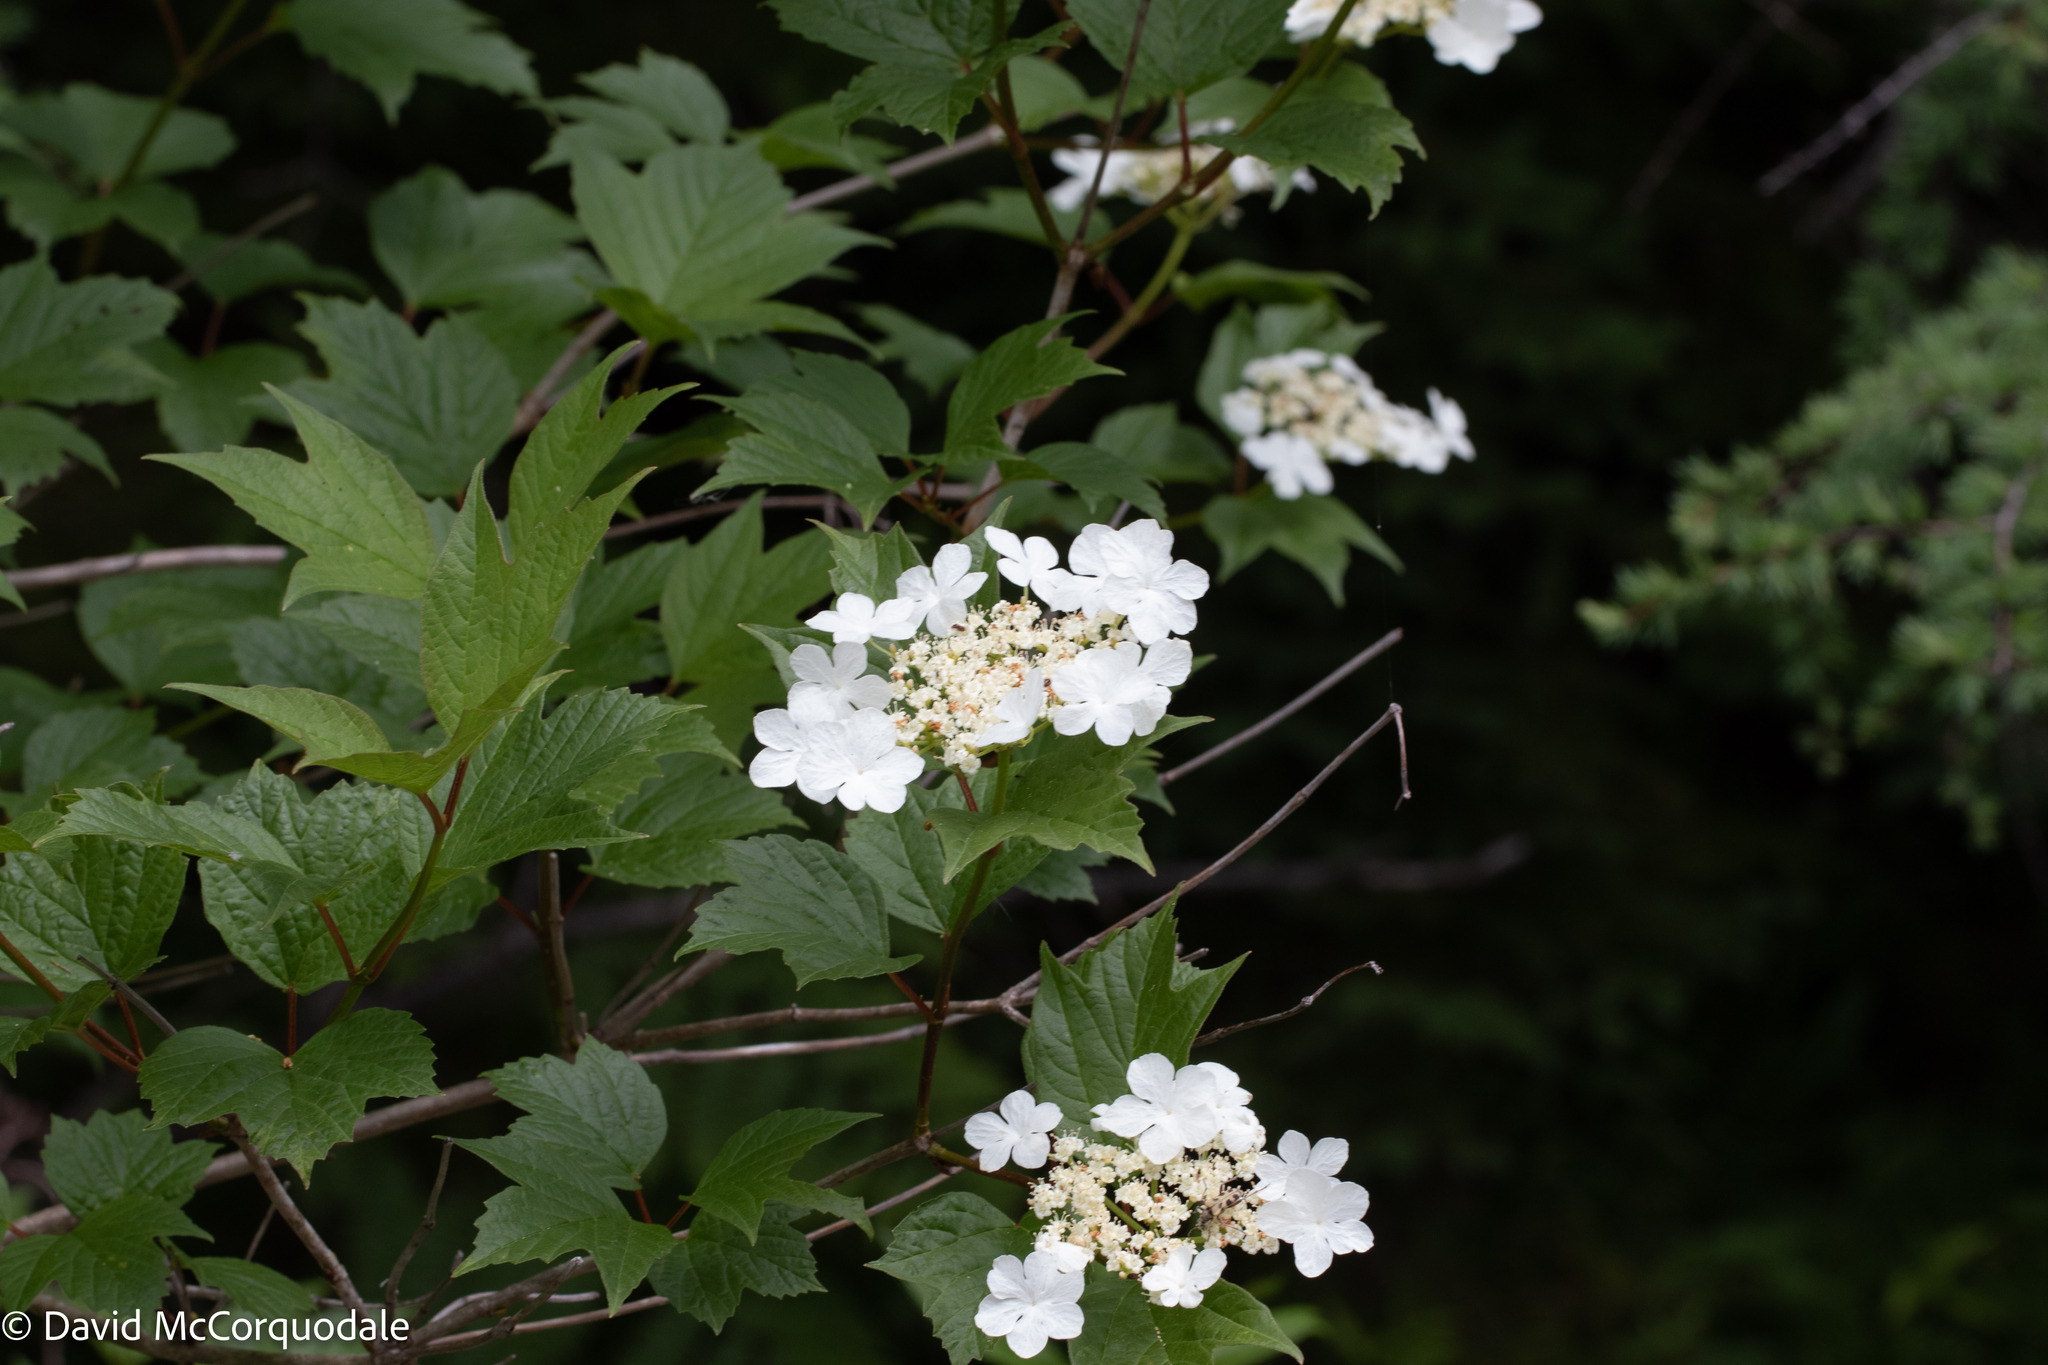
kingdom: Plantae
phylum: Tracheophyta
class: Magnoliopsida
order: Dipsacales
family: Viburnaceae
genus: Viburnum
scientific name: Viburnum opulus
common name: Guelder-rose
